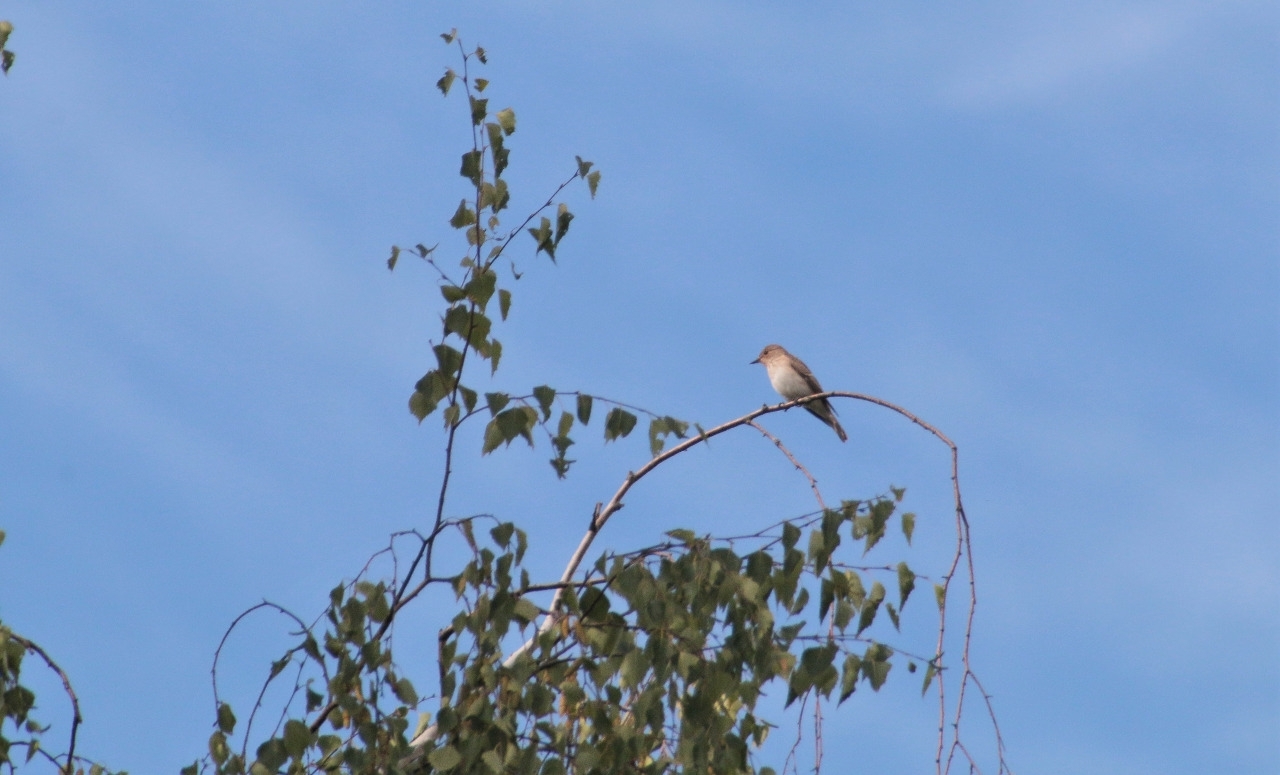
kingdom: Animalia
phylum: Chordata
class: Aves
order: Passeriformes
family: Muscicapidae
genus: Muscicapa
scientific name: Muscicapa striata
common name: Spotted flycatcher
